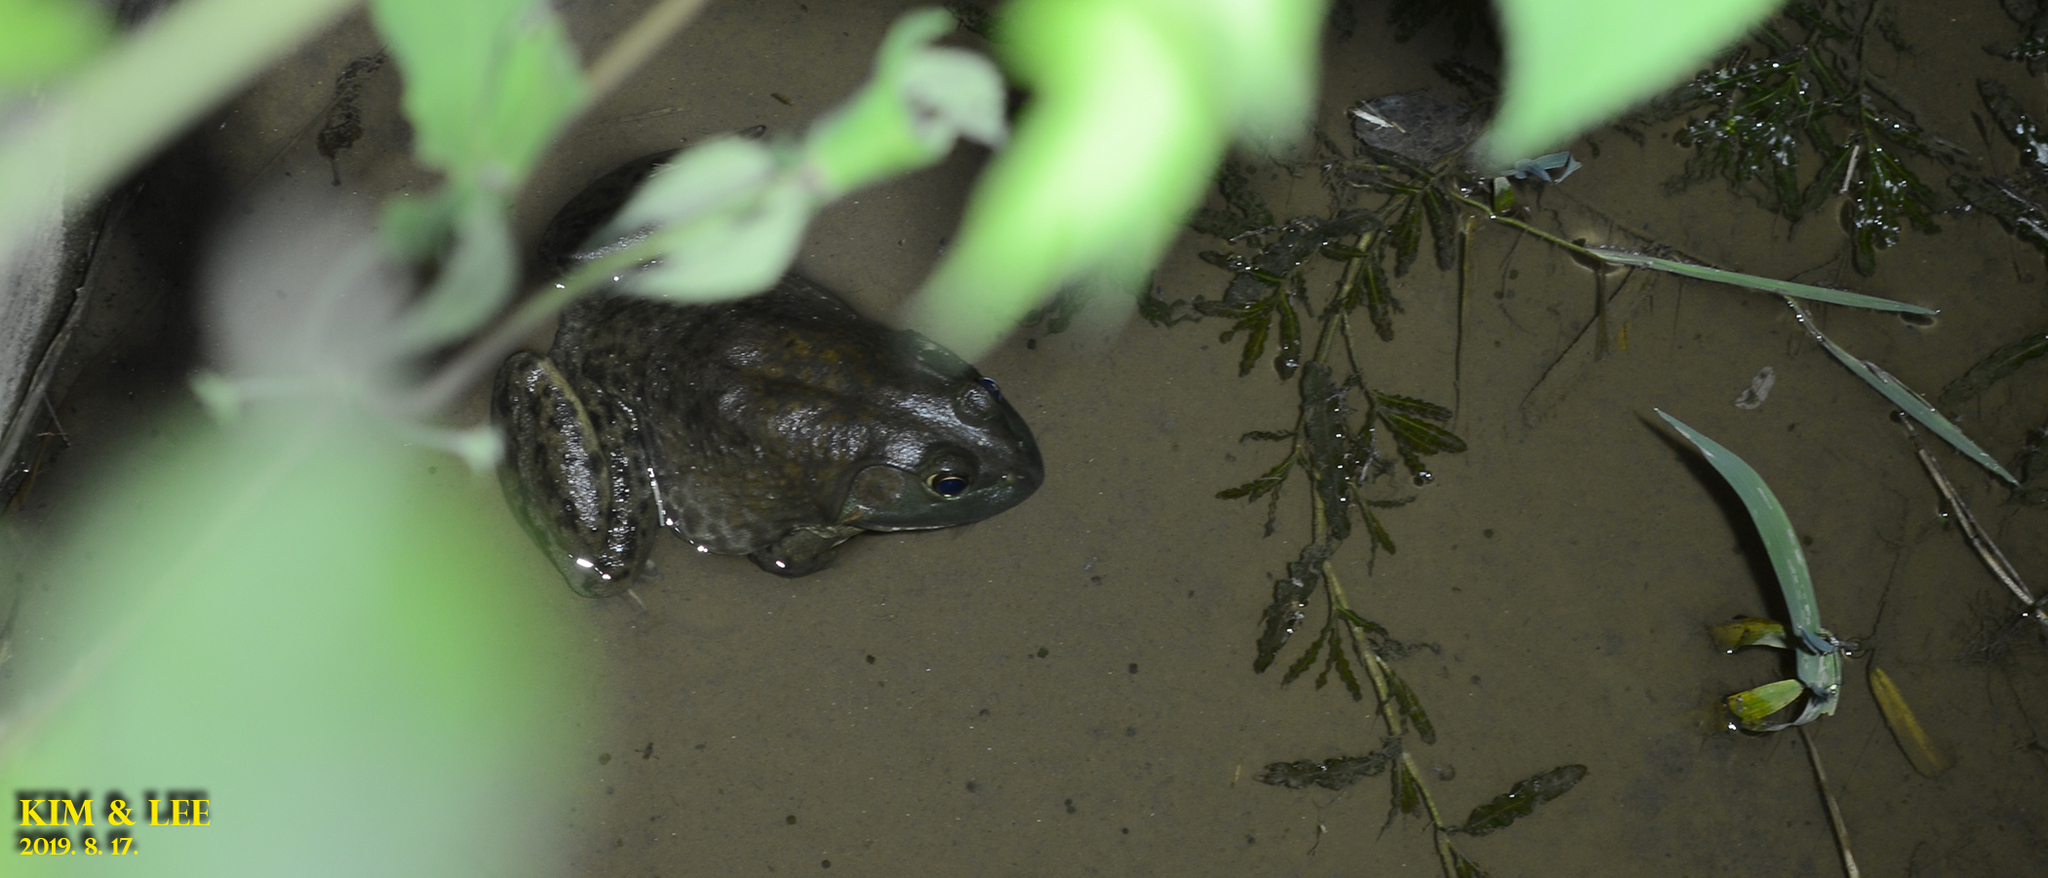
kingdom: Animalia
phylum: Chordata
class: Amphibia
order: Anura
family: Ranidae
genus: Lithobates
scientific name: Lithobates catesbeianus
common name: American bullfrog
